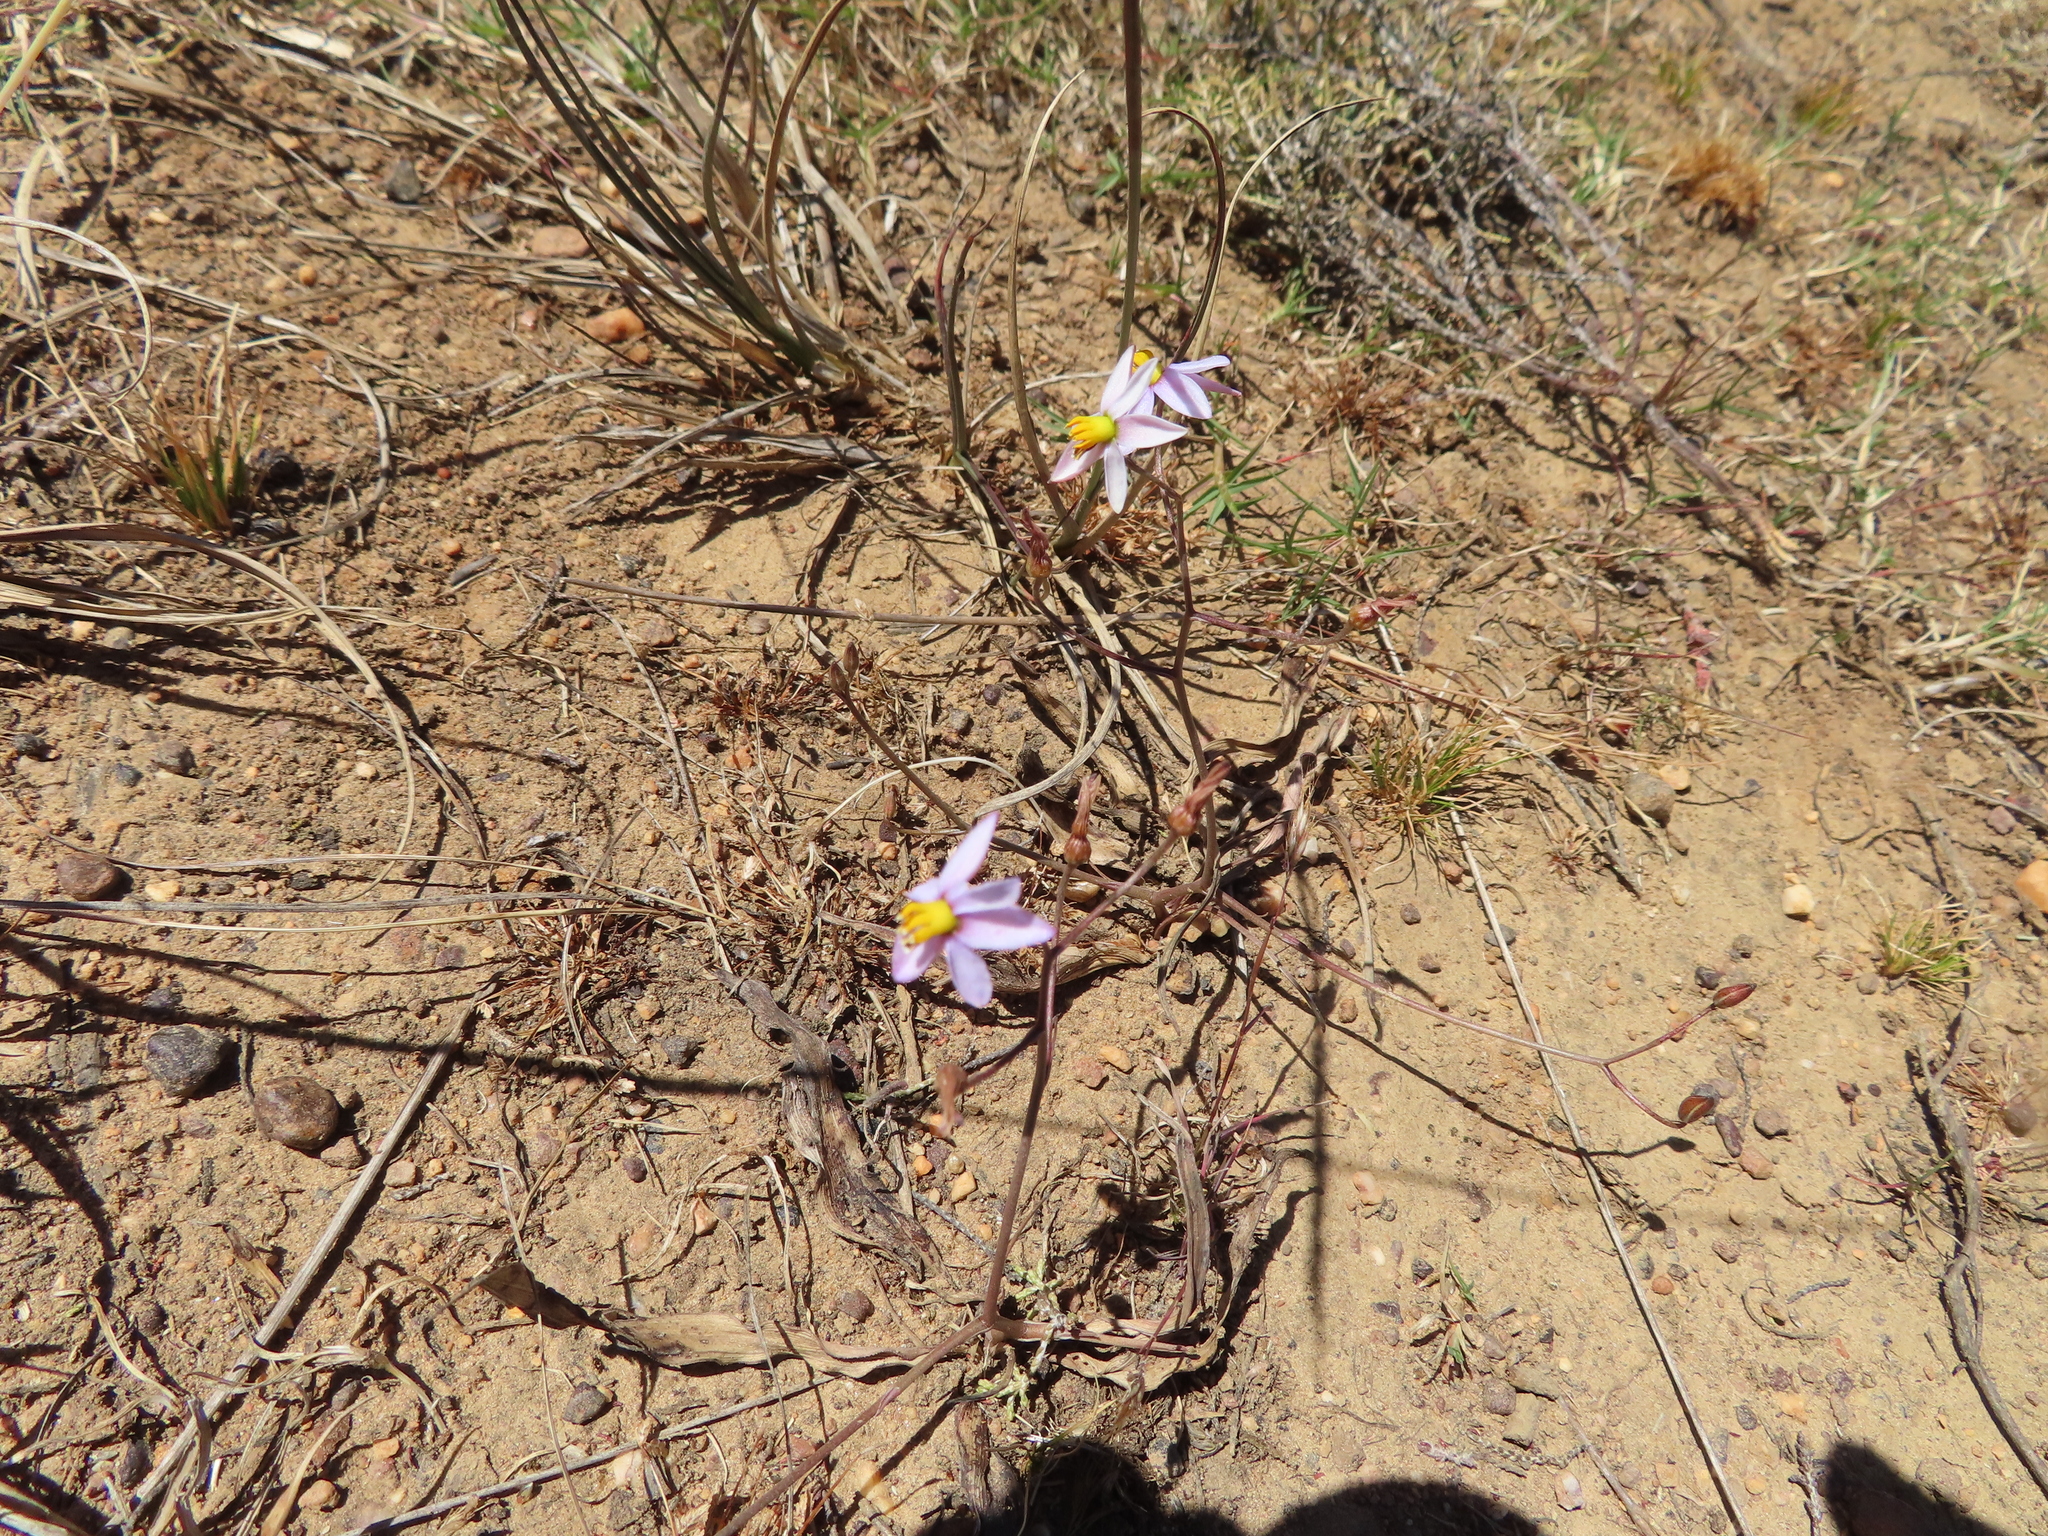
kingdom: Plantae
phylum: Tracheophyta
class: Liliopsida
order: Asparagales
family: Tecophilaeaceae
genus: Cyanella
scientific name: Cyanella hyacinthoides
